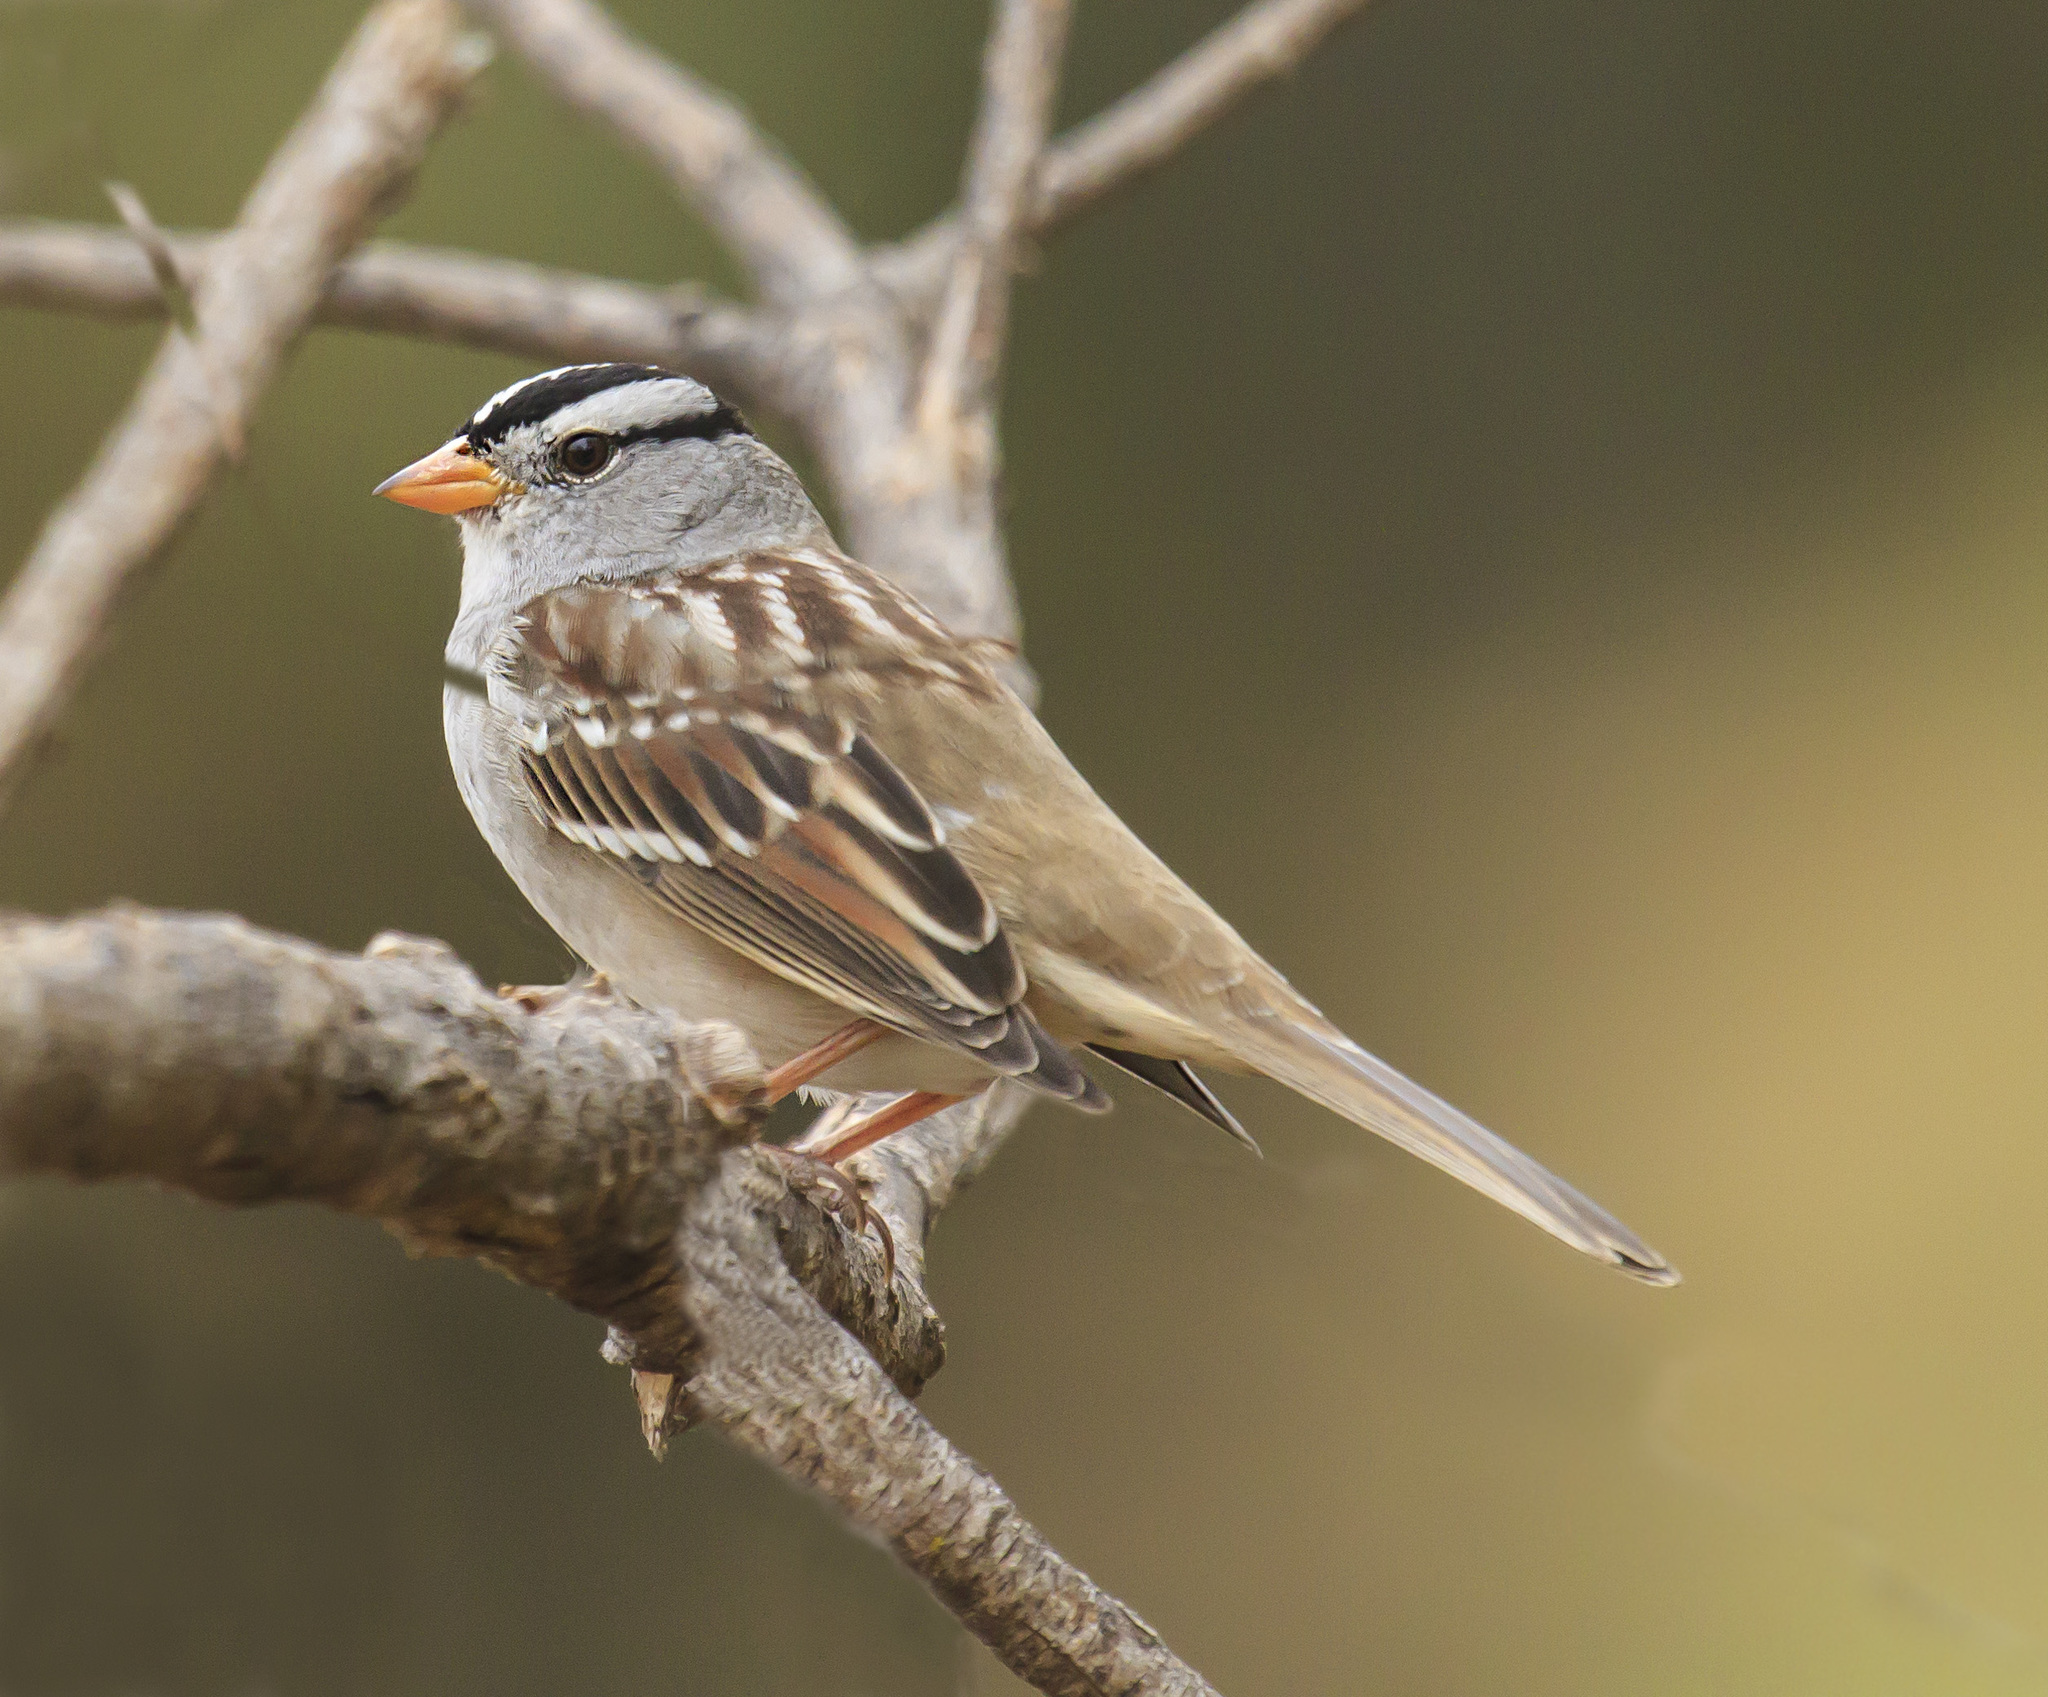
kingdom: Animalia
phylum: Chordata
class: Aves
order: Passeriformes
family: Passerellidae
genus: Zonotrichia
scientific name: Zonotrichia leucophrys
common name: White-crowned sparrow
